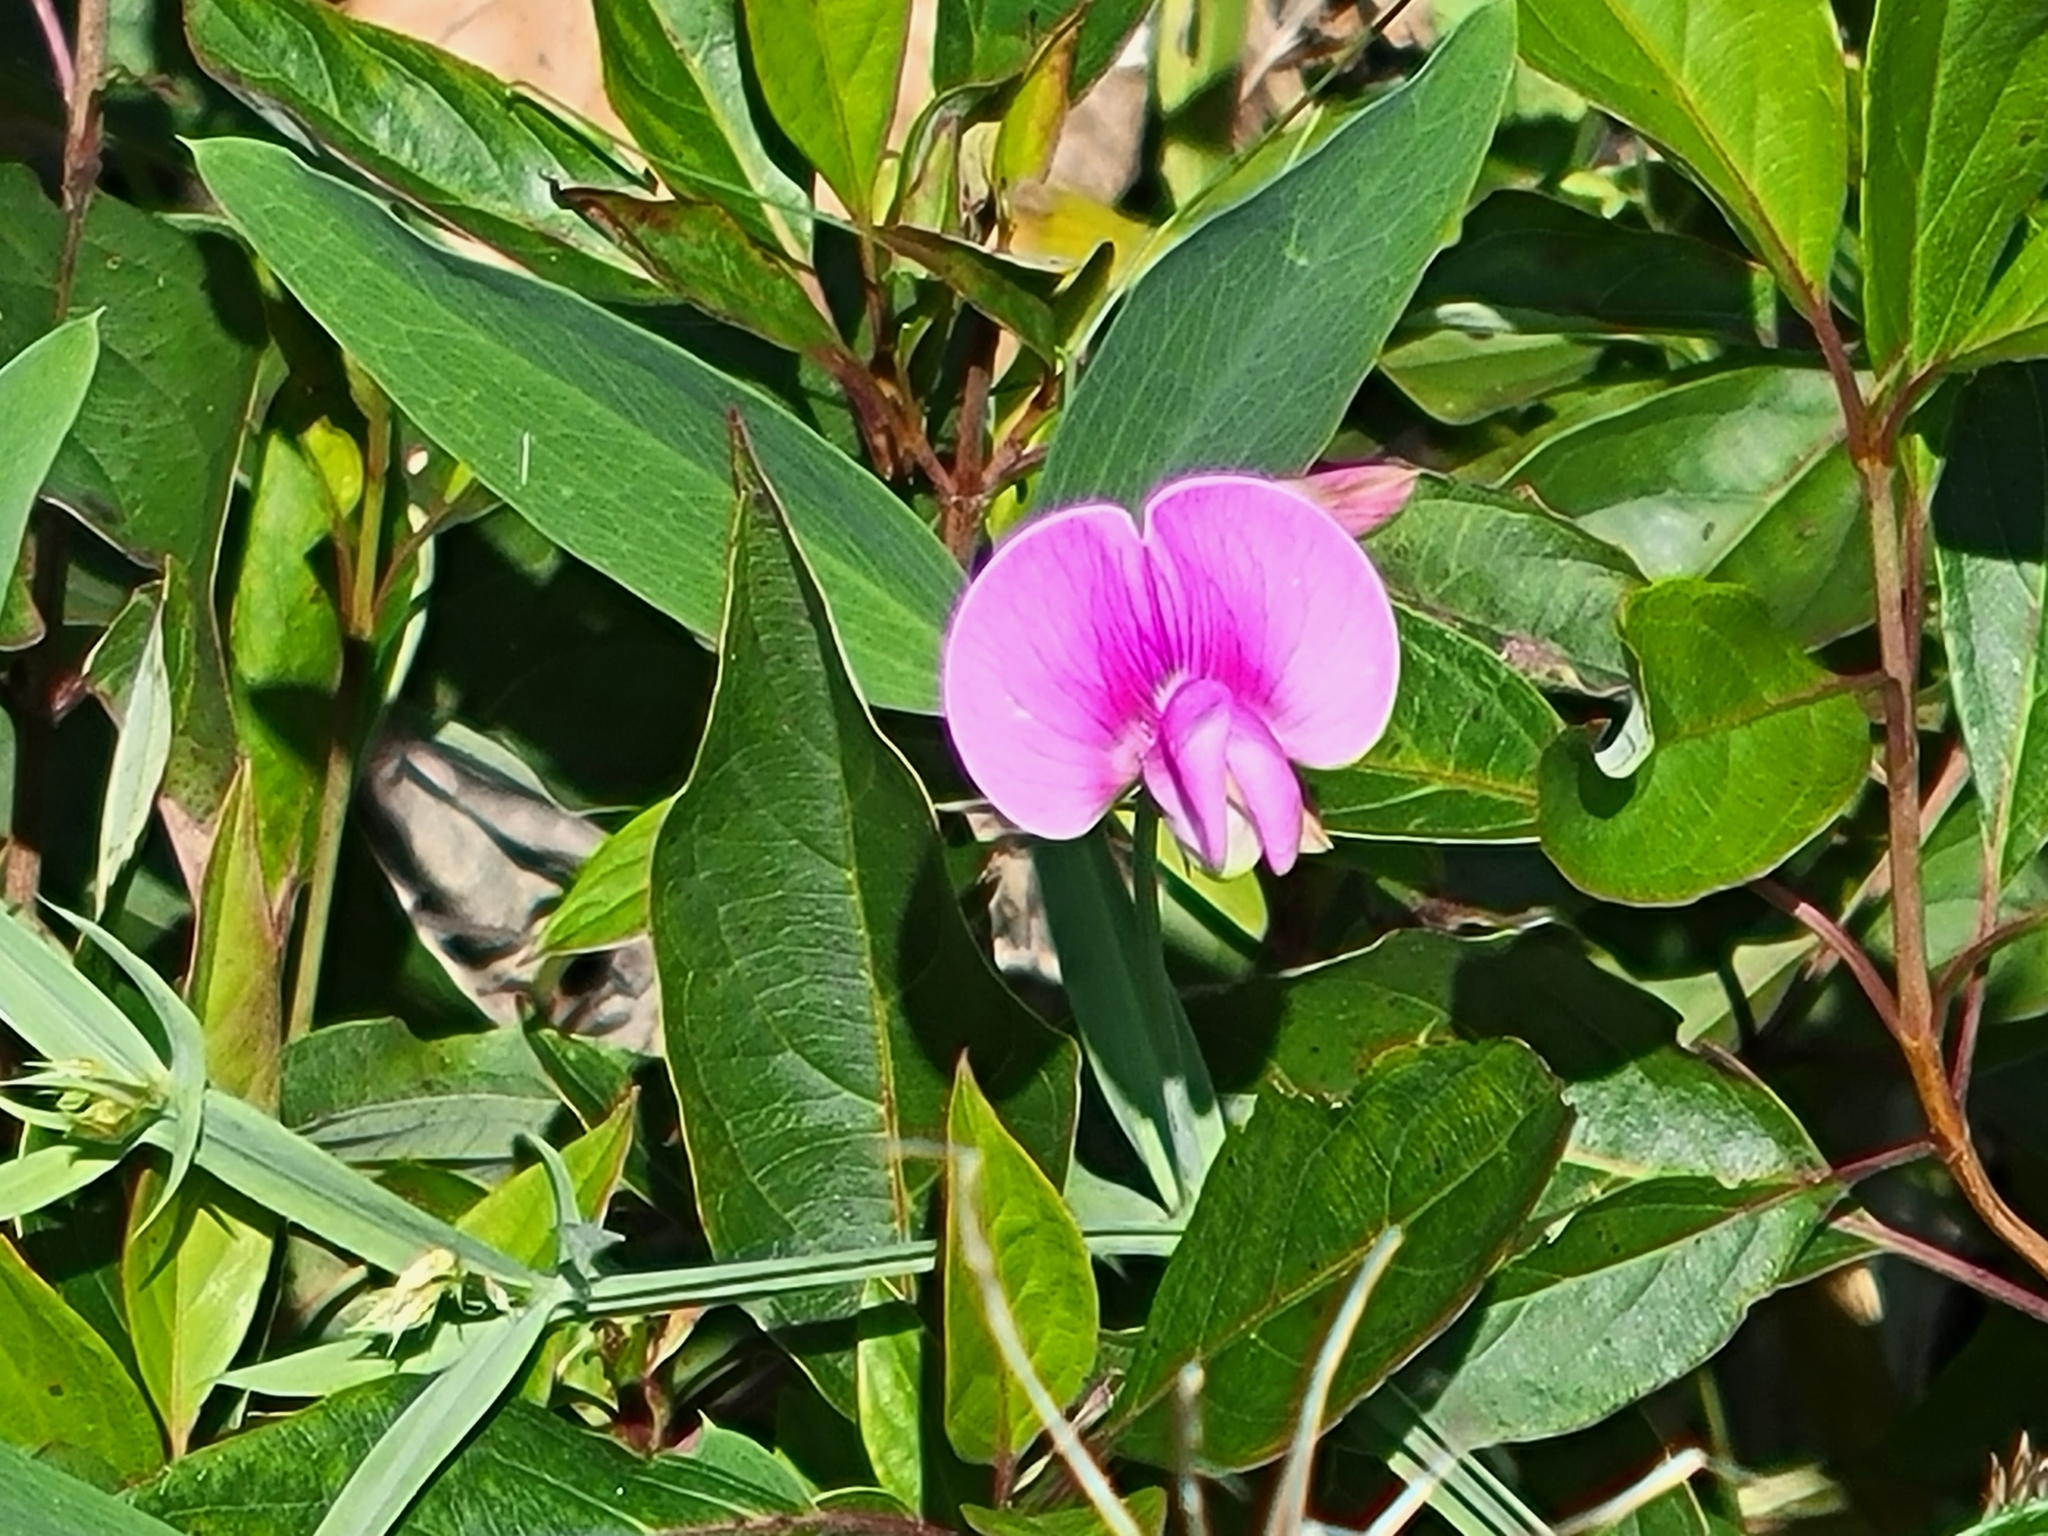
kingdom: Plantae
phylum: Tracheophyta
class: Magnoliopsida
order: Fabales
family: Fabaceae
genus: Lathyrus
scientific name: Lathyrus latifolius
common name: Perennial pea
